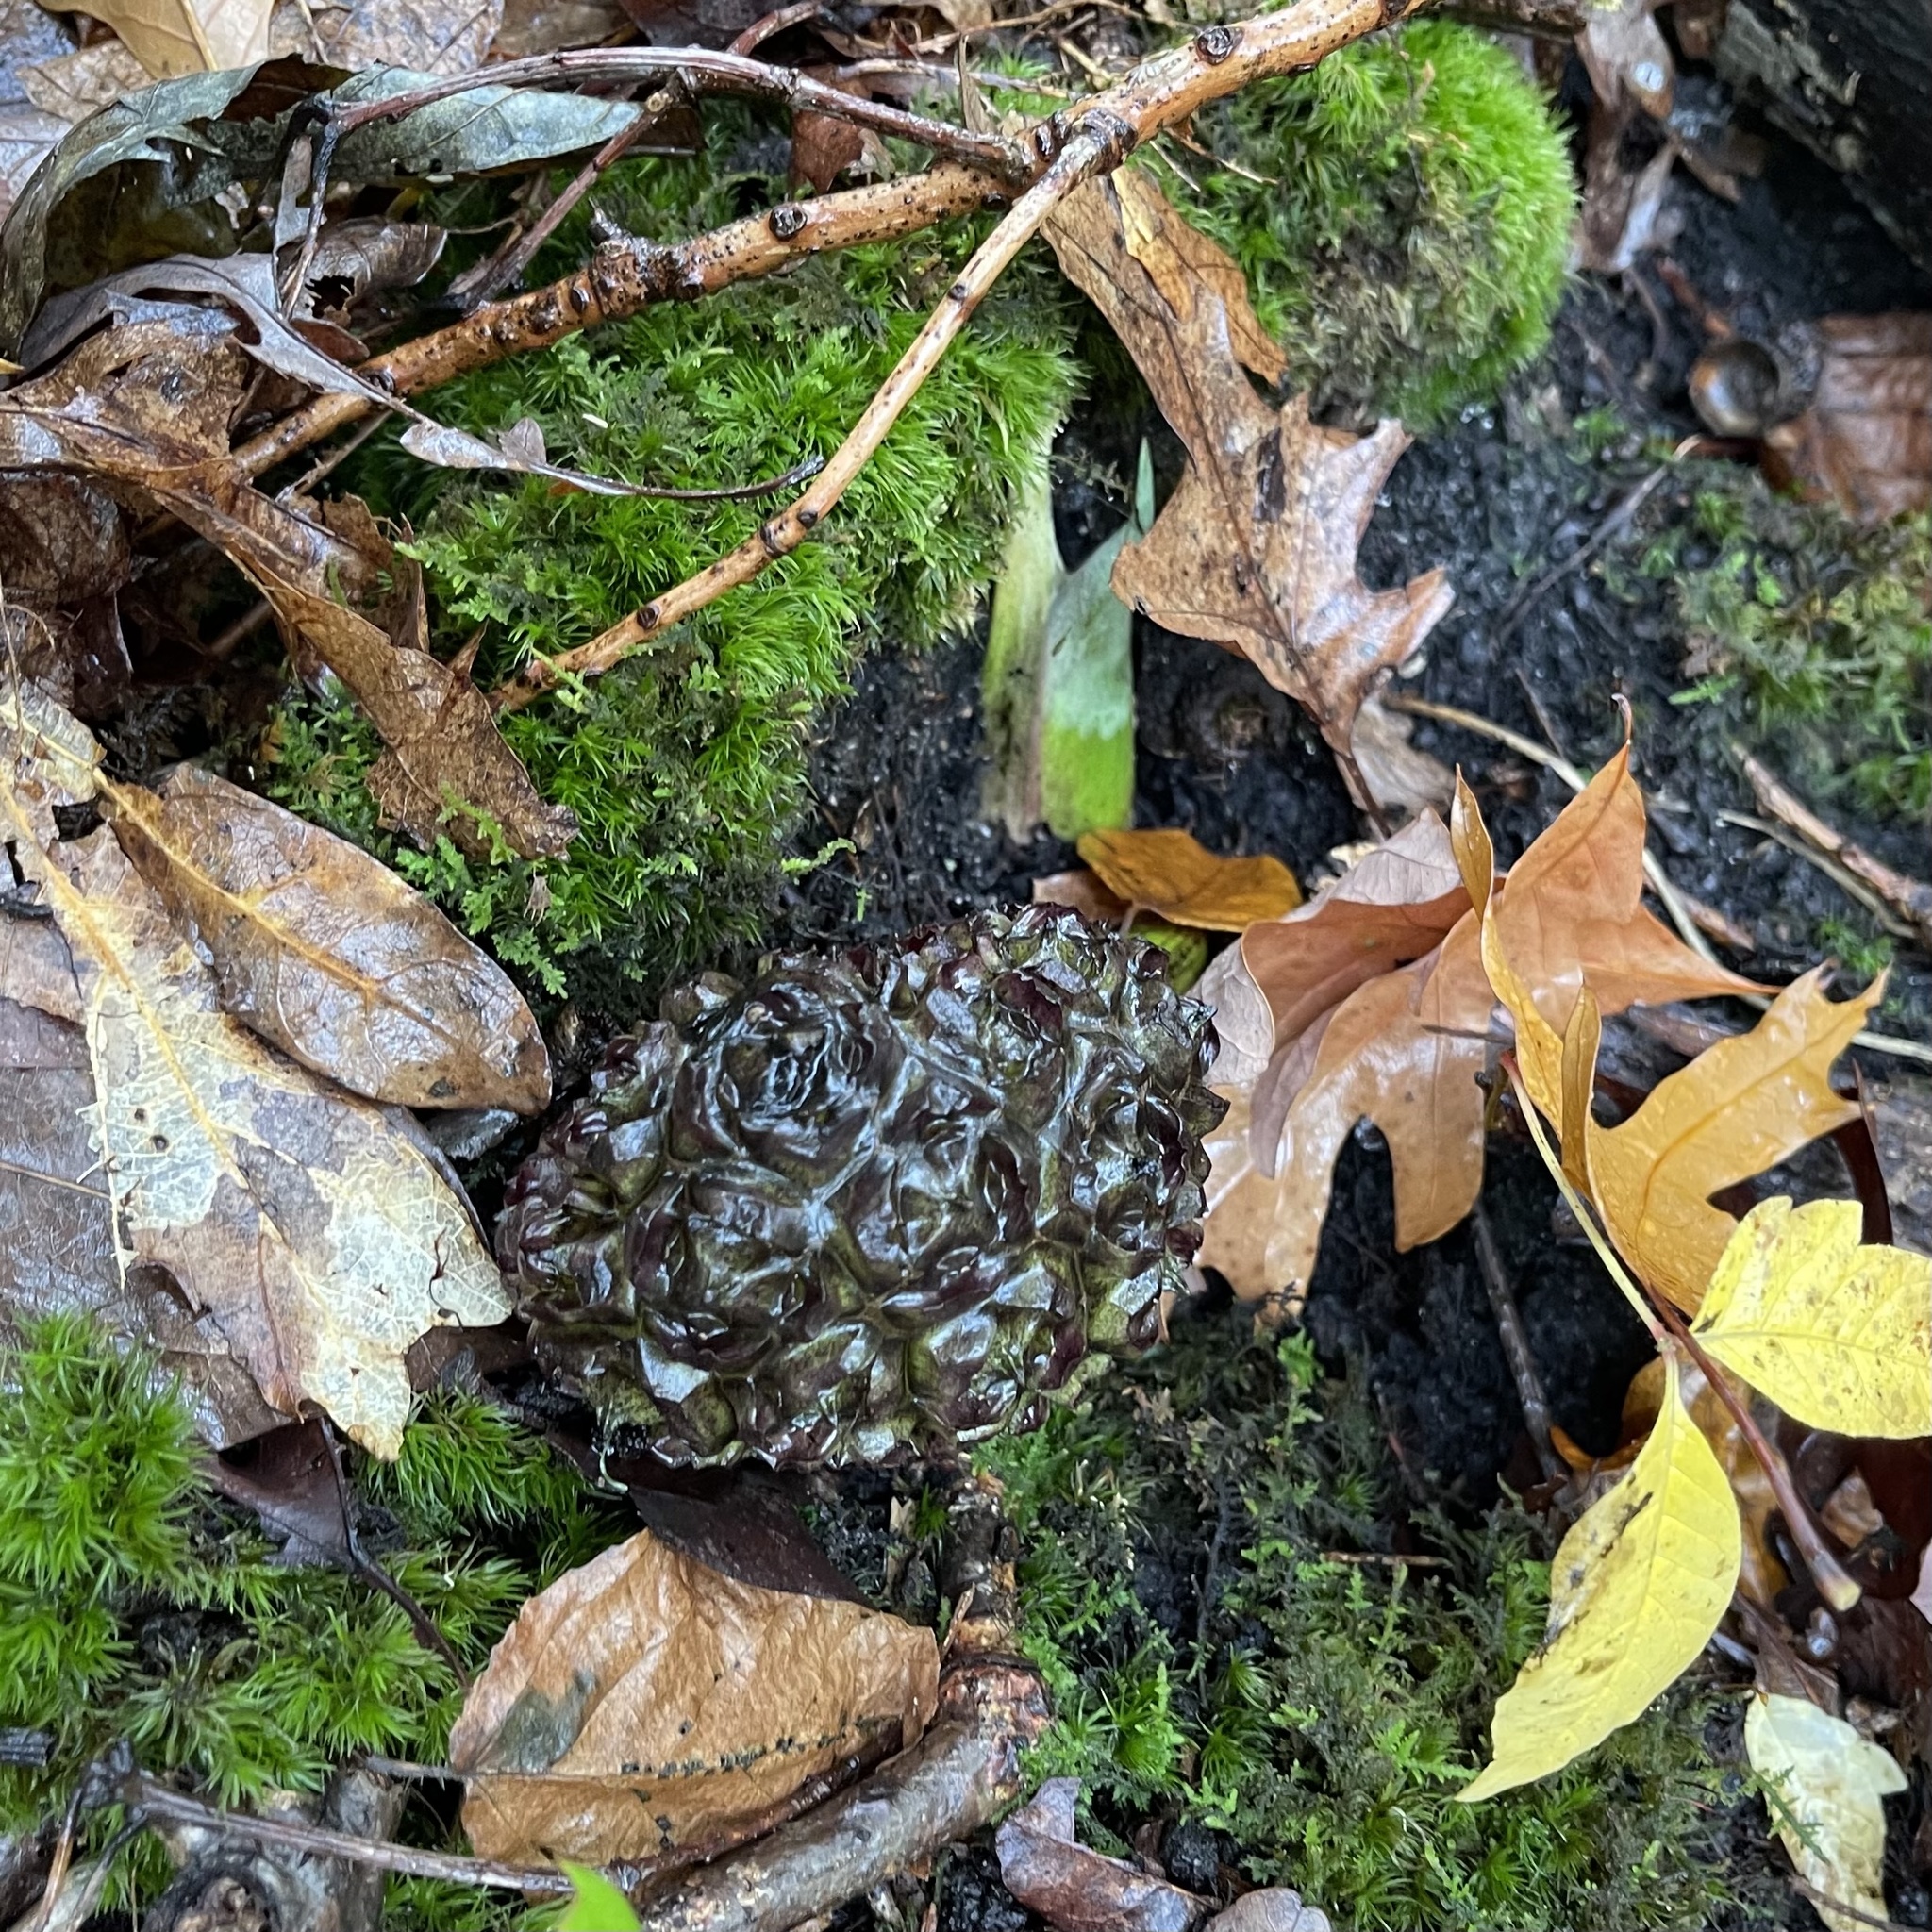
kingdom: Plantae
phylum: Tracheophyta
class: Liliopsida
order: Alismatales
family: Araceae
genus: Symplocarpus
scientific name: Symplocarpus foetidus
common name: Eastern skunk cabbage
